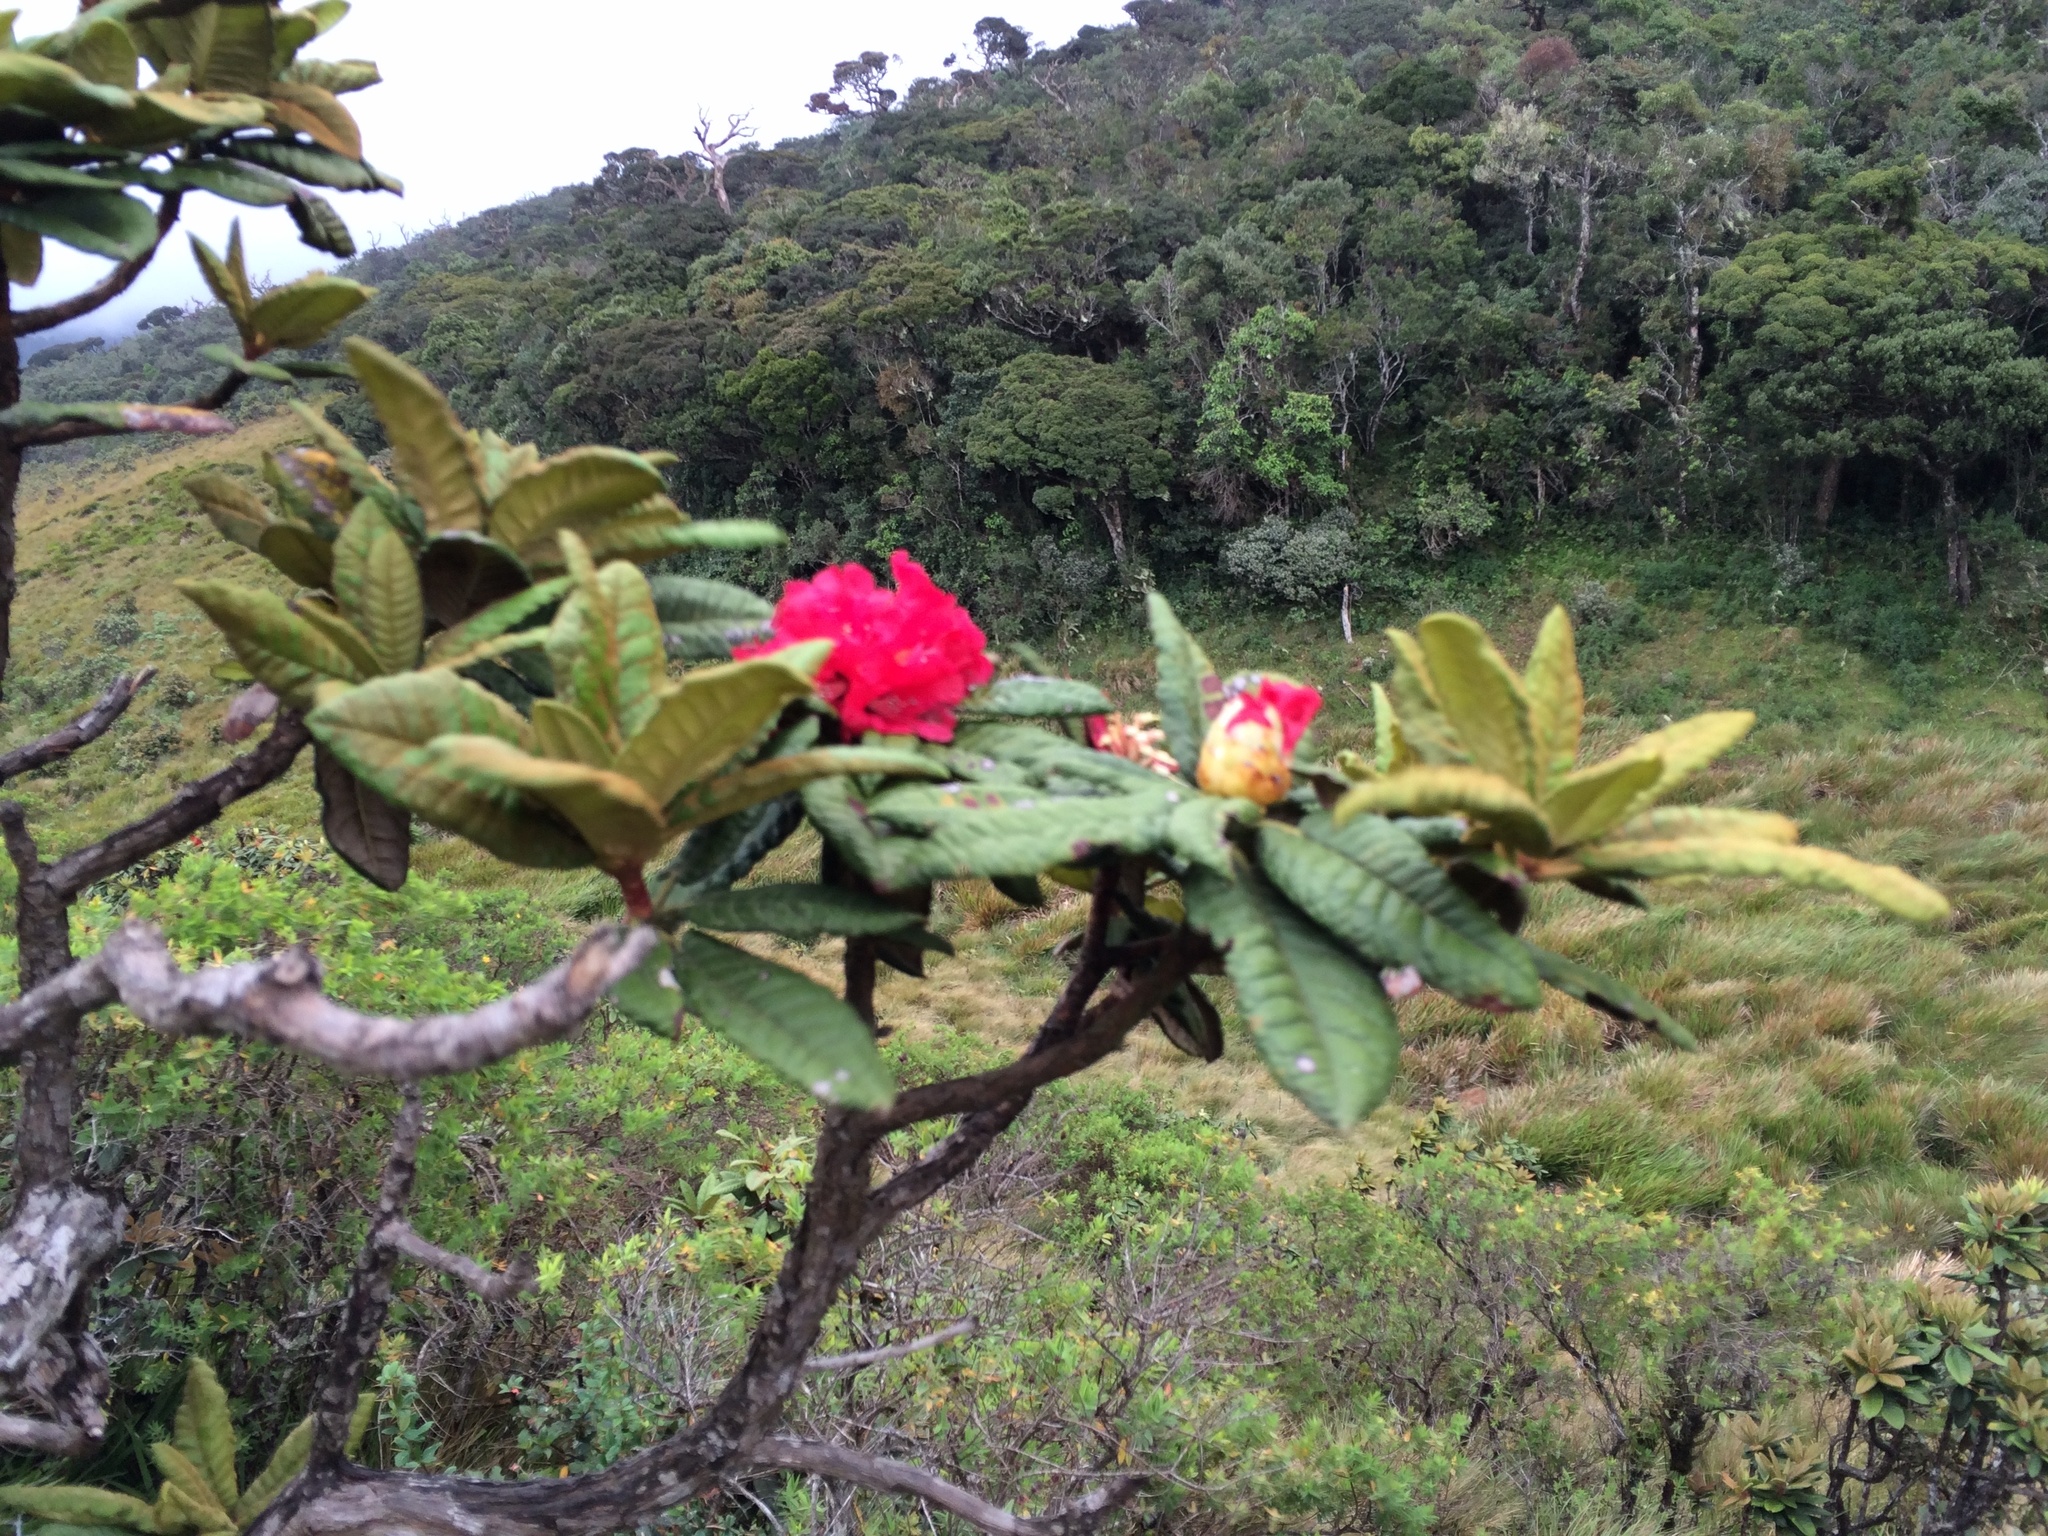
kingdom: Plantae
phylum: Tracheophyta
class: Magnoliopsida
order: Ericales
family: Ericaceae
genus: Rhododendron
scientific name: Rhododendron arboreum
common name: Tree rhododendron
